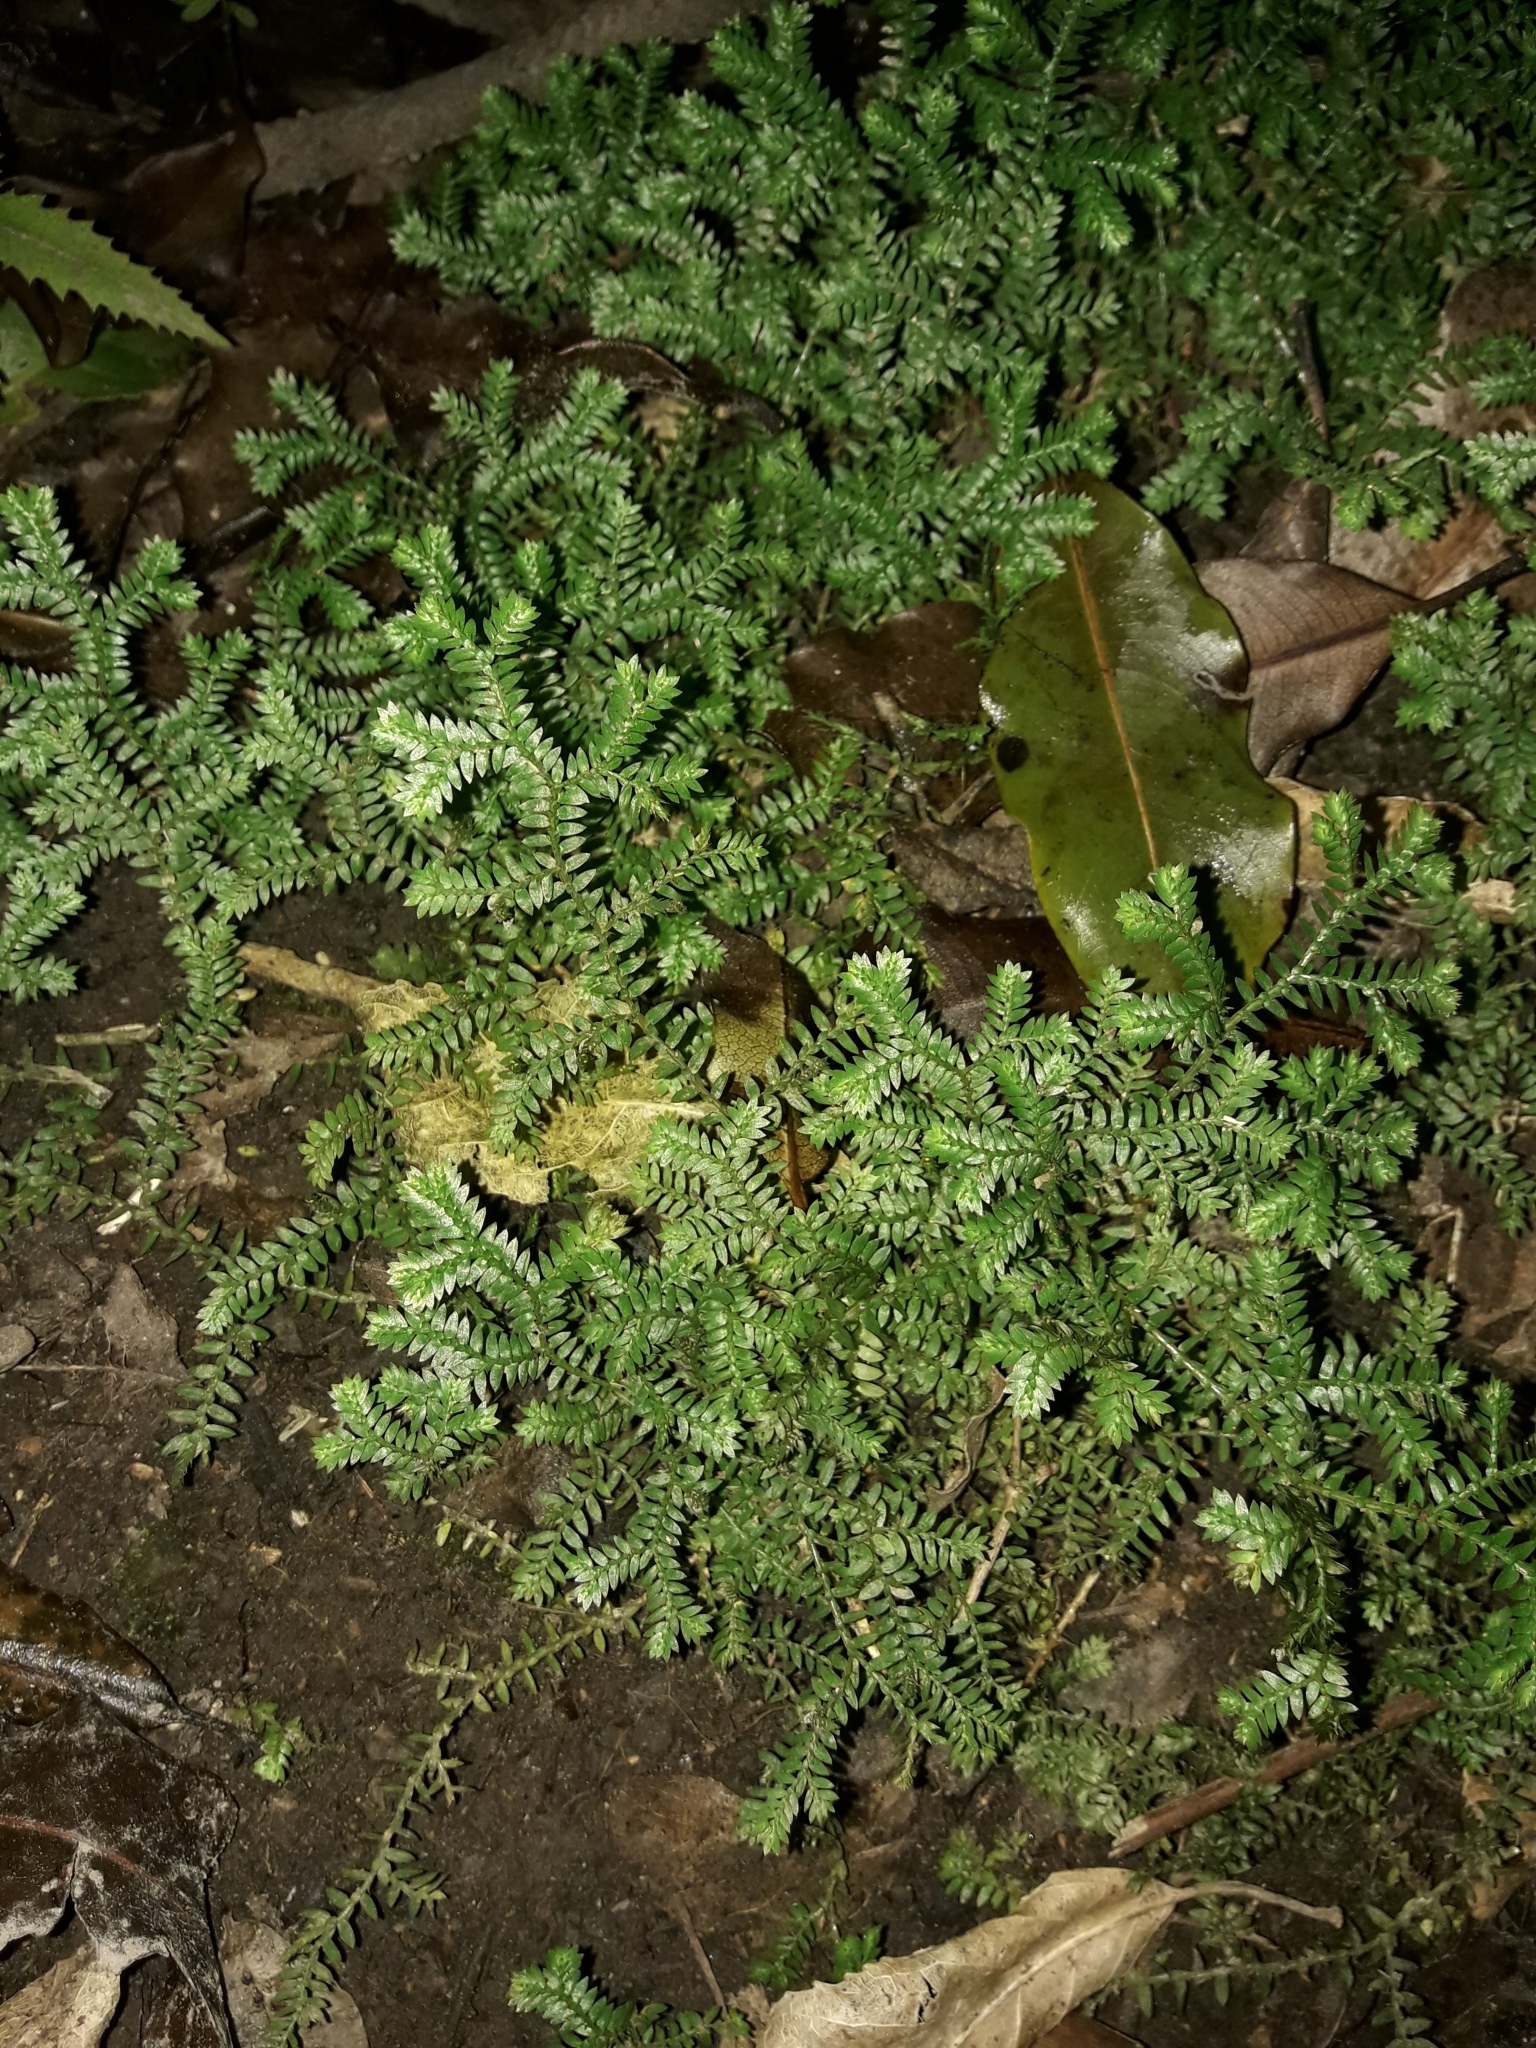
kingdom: Plantae
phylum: Tracheophyta
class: Lycopodiopsida
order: Selaginellales
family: Selaginellaceae
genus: Selaginella
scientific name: Selaginella kraussiana
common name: Krauss' spikemoss
